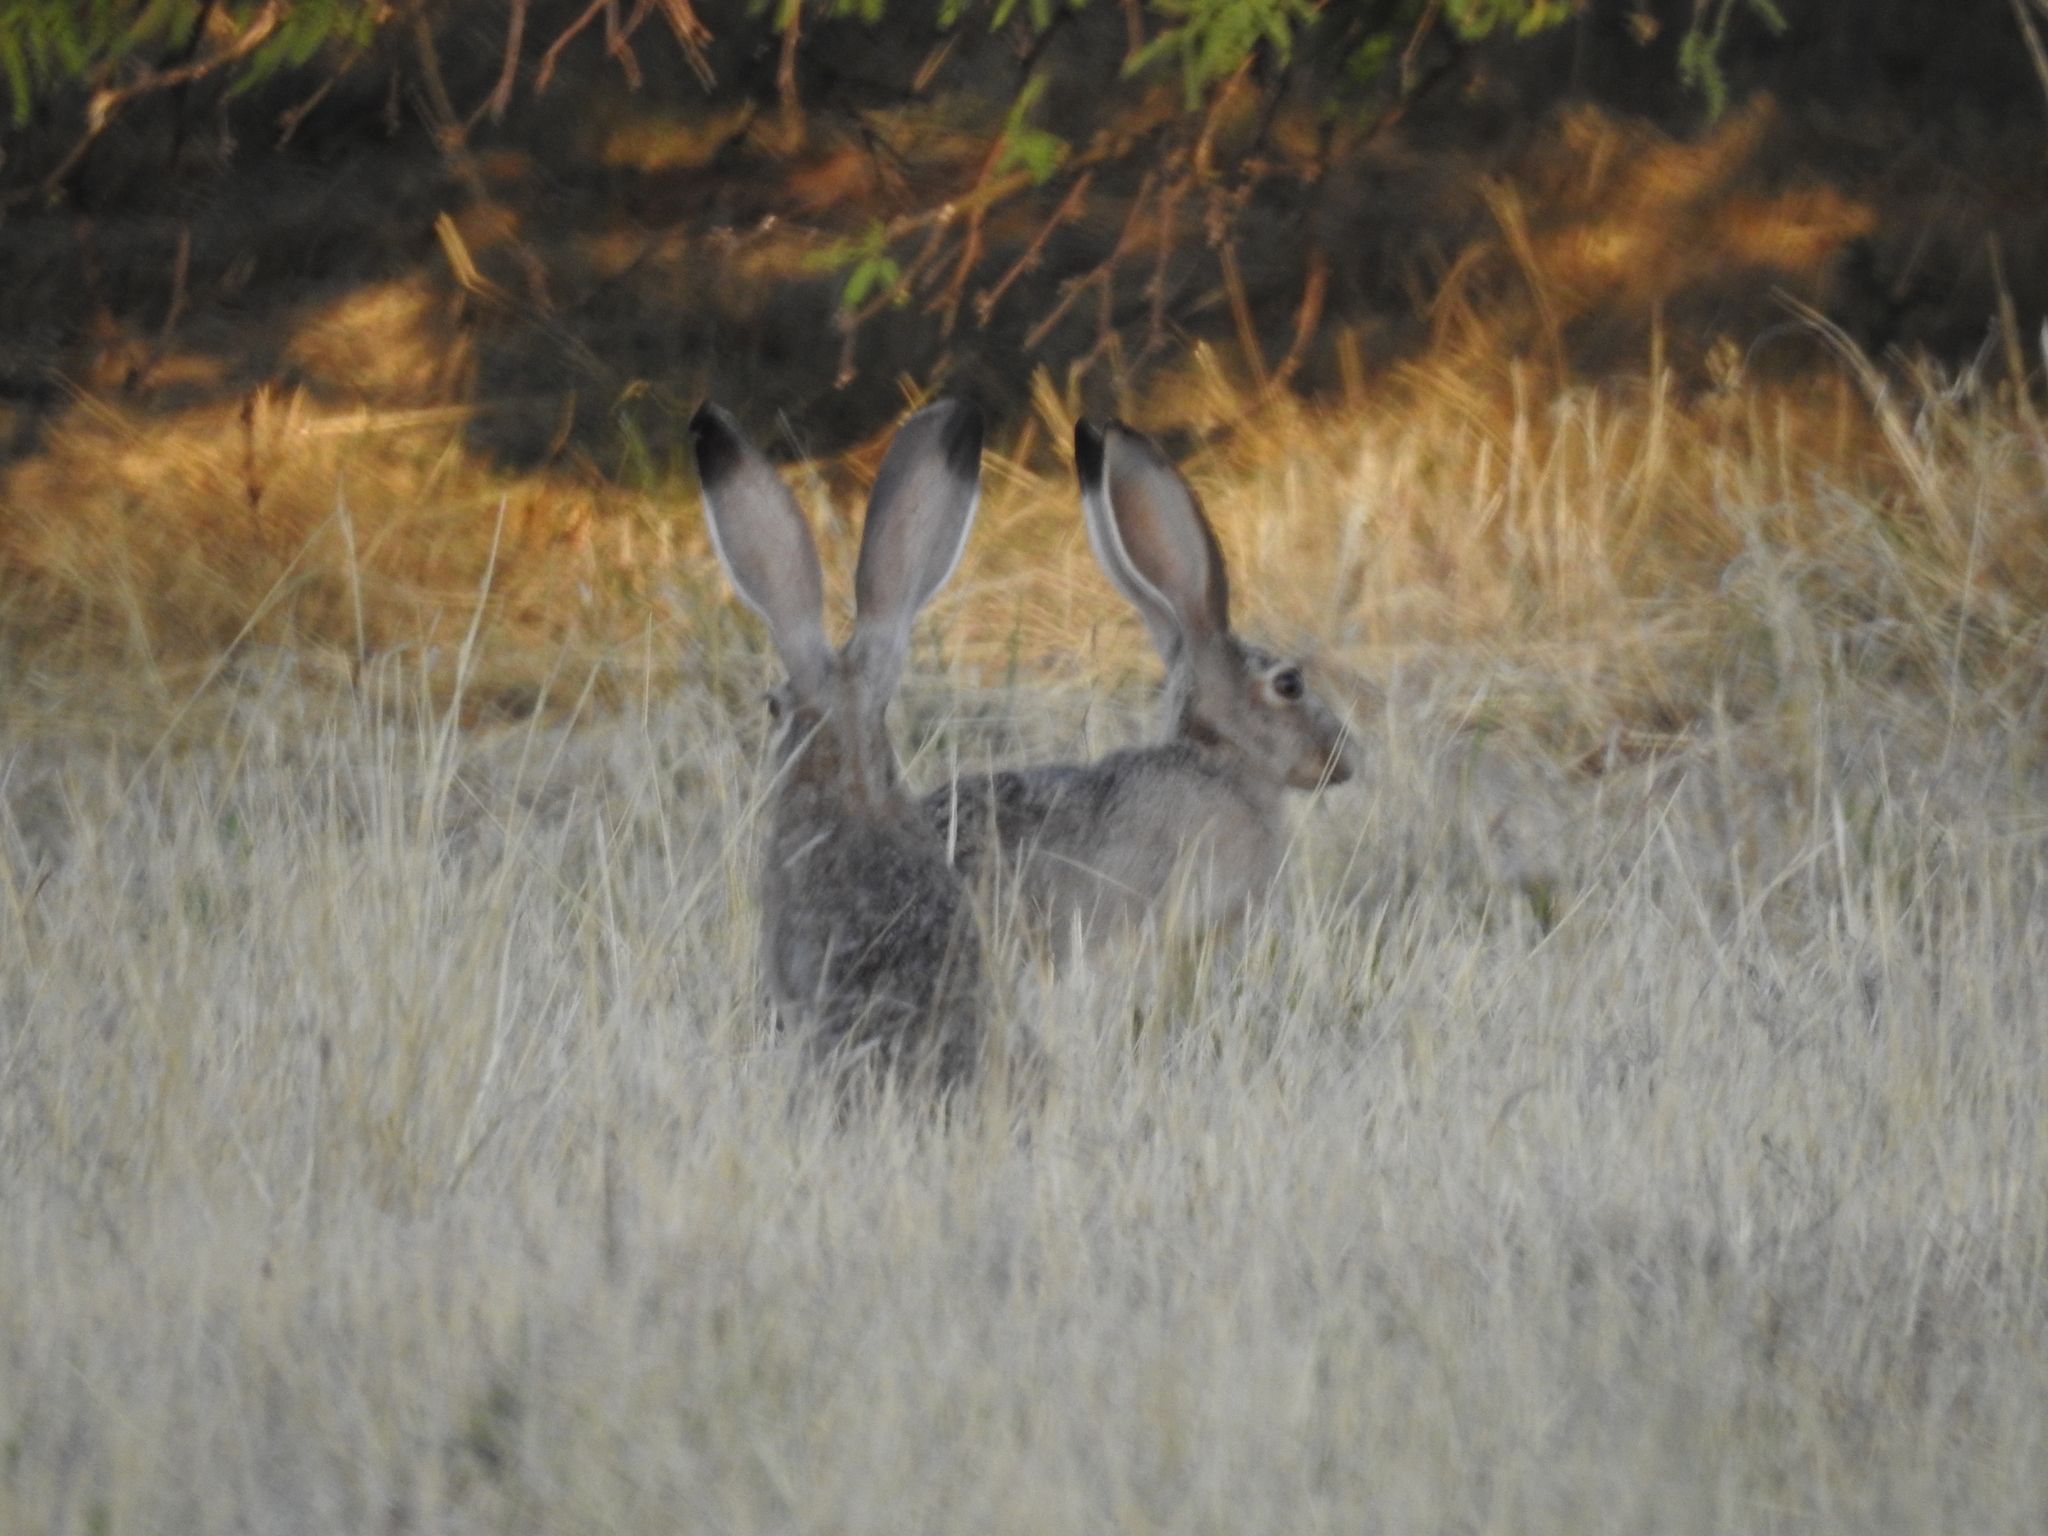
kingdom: Animalia
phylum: Chordata
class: Mammalia
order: Lagomorpha
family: Leporidae
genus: Lepus
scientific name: Lepus californicus
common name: Black-tailed jackrabbit
